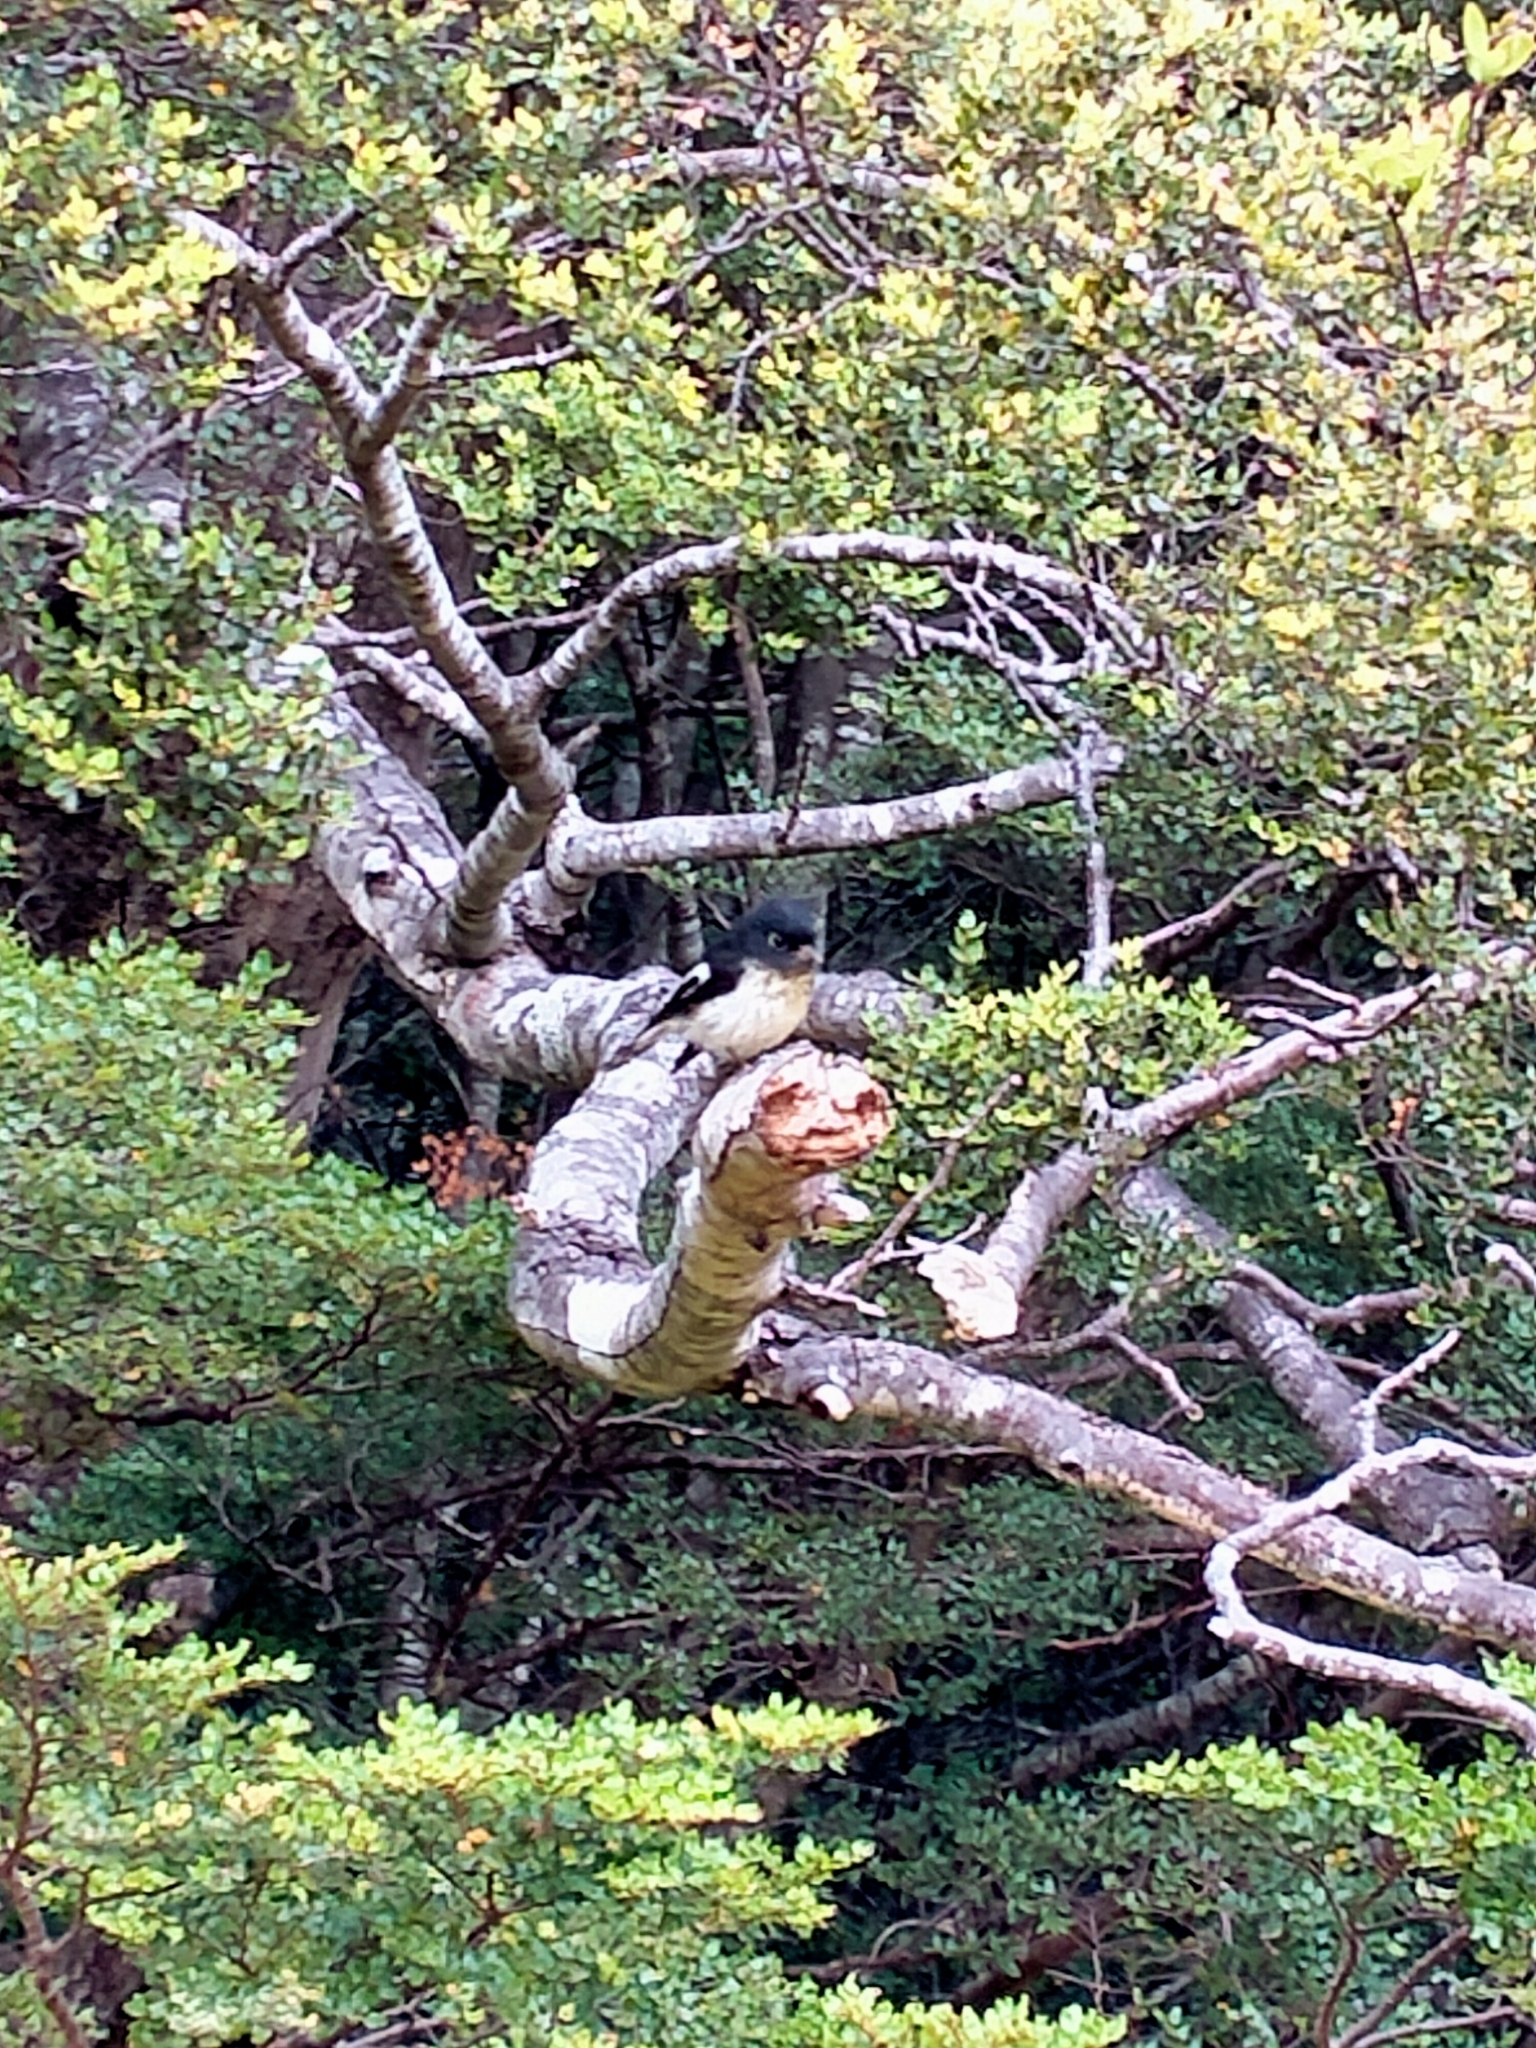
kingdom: Animalia
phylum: Chordata
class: Aves
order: Passeriformes
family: Petroicidae
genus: Petroica
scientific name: Petroica macrocephala
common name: Tomtit
